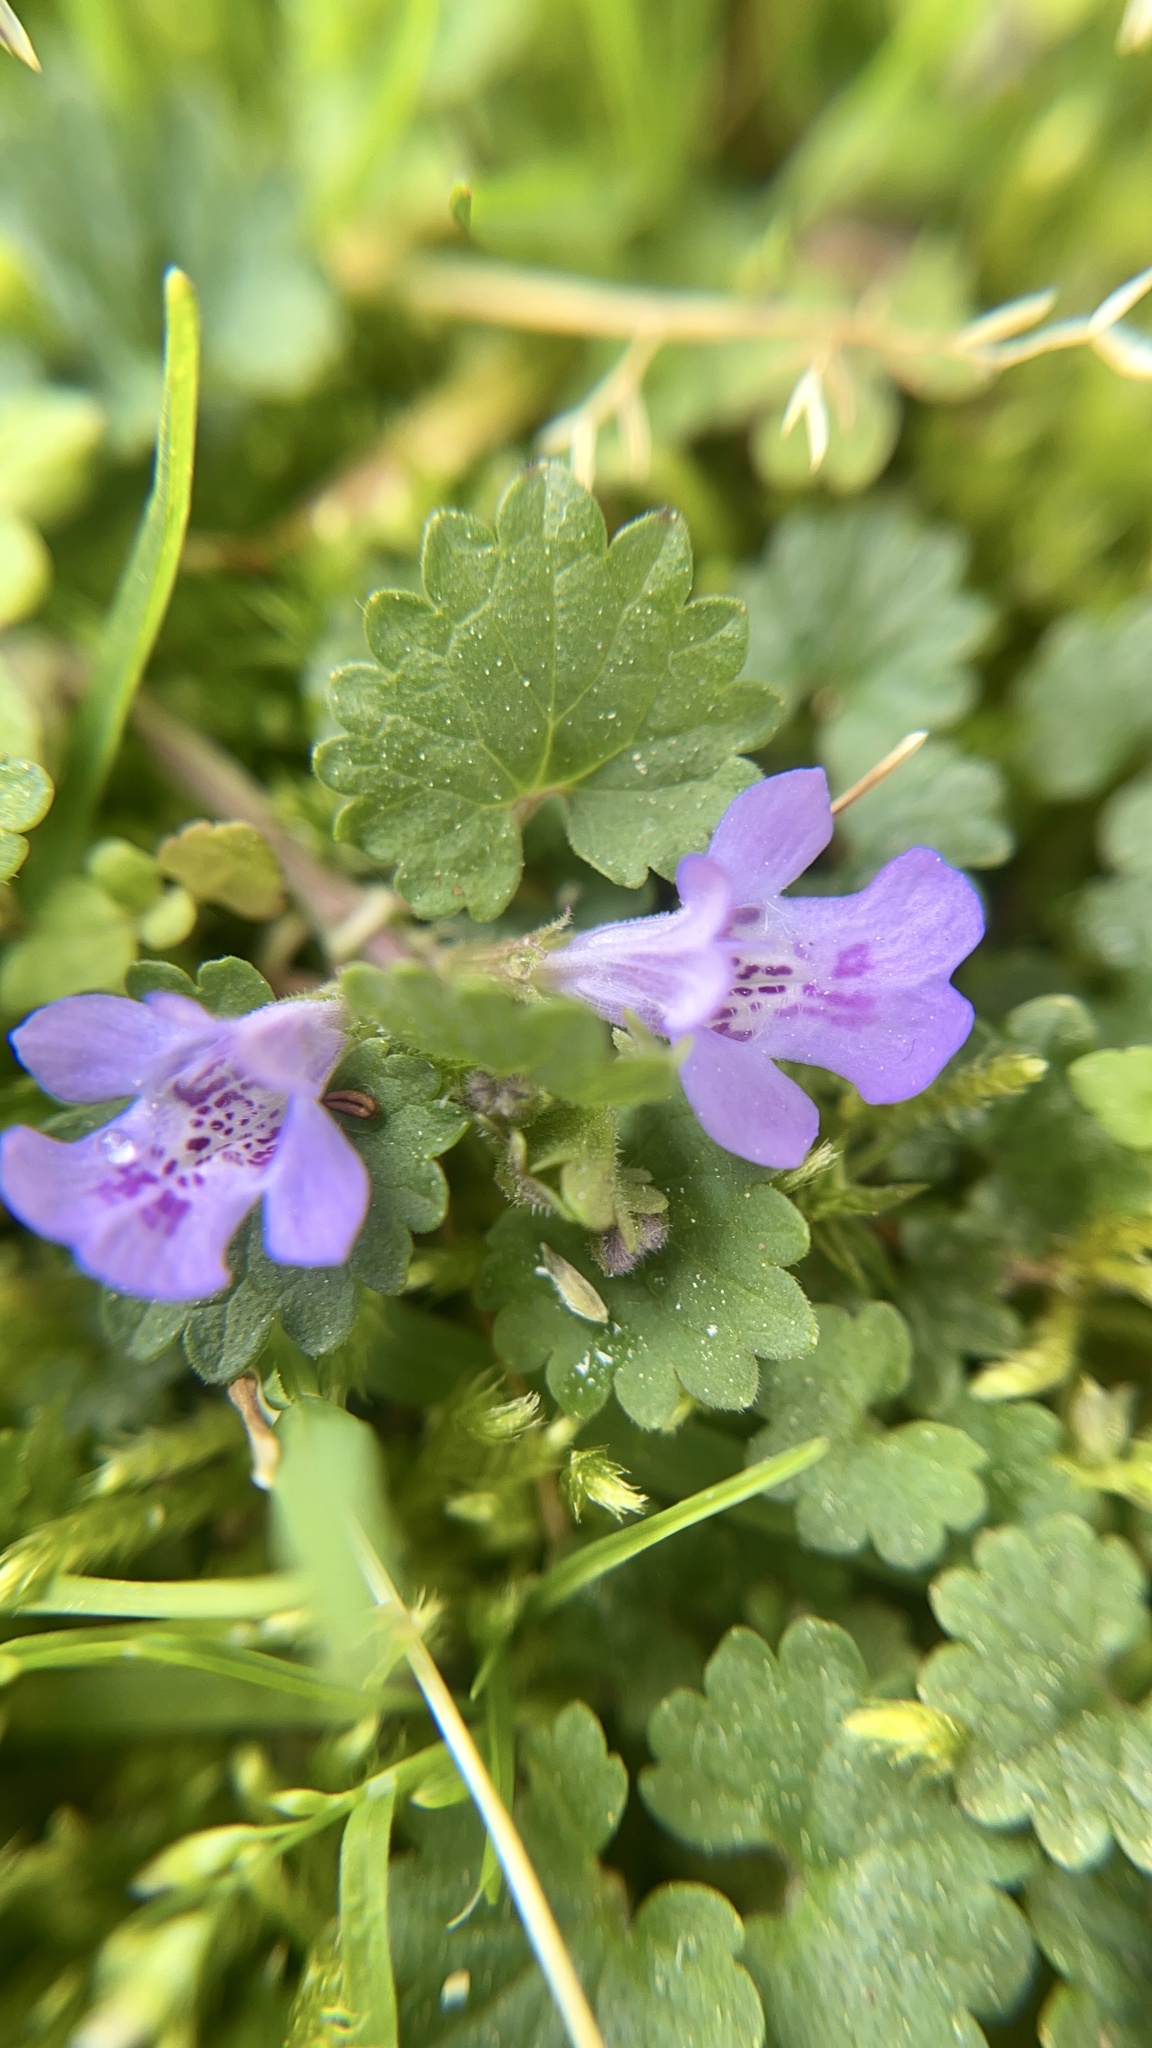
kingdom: Plantae
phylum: Tracheophyta
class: Magnoliopsida
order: Lamiales
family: Lamiaceae
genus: Glechoma
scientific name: Glechoma hederacea
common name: Ground ivy
